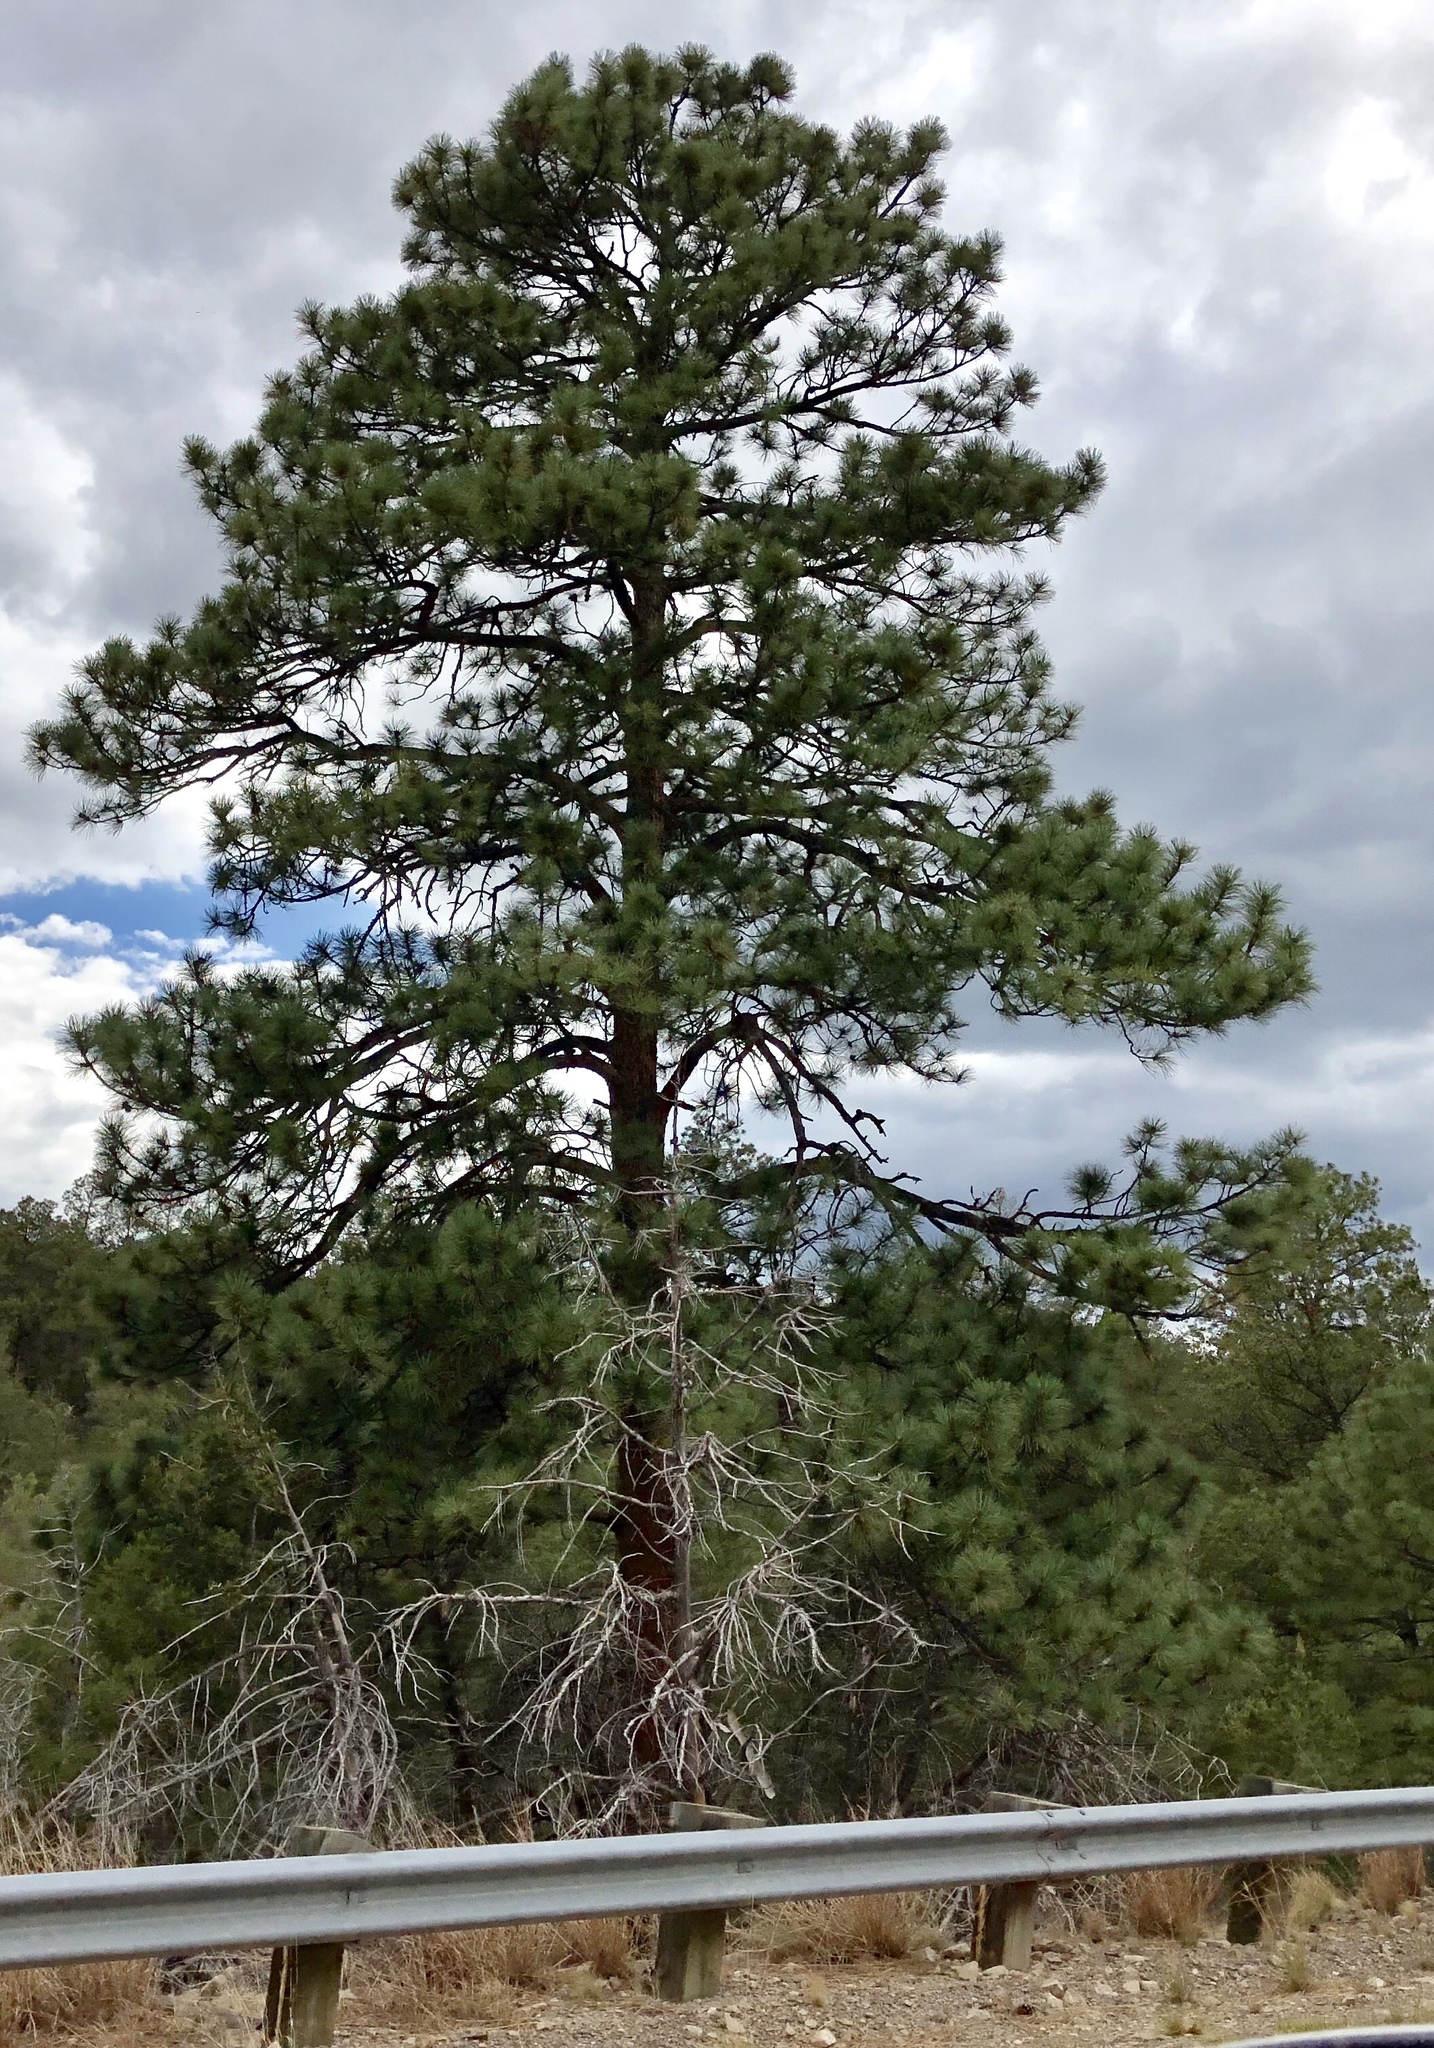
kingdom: Plantae
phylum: Tracheophyta
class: Pinopsida
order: Pinales
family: Pinaceae
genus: Pinus
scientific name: Pinus ponderosa
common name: Western yellow-pine
